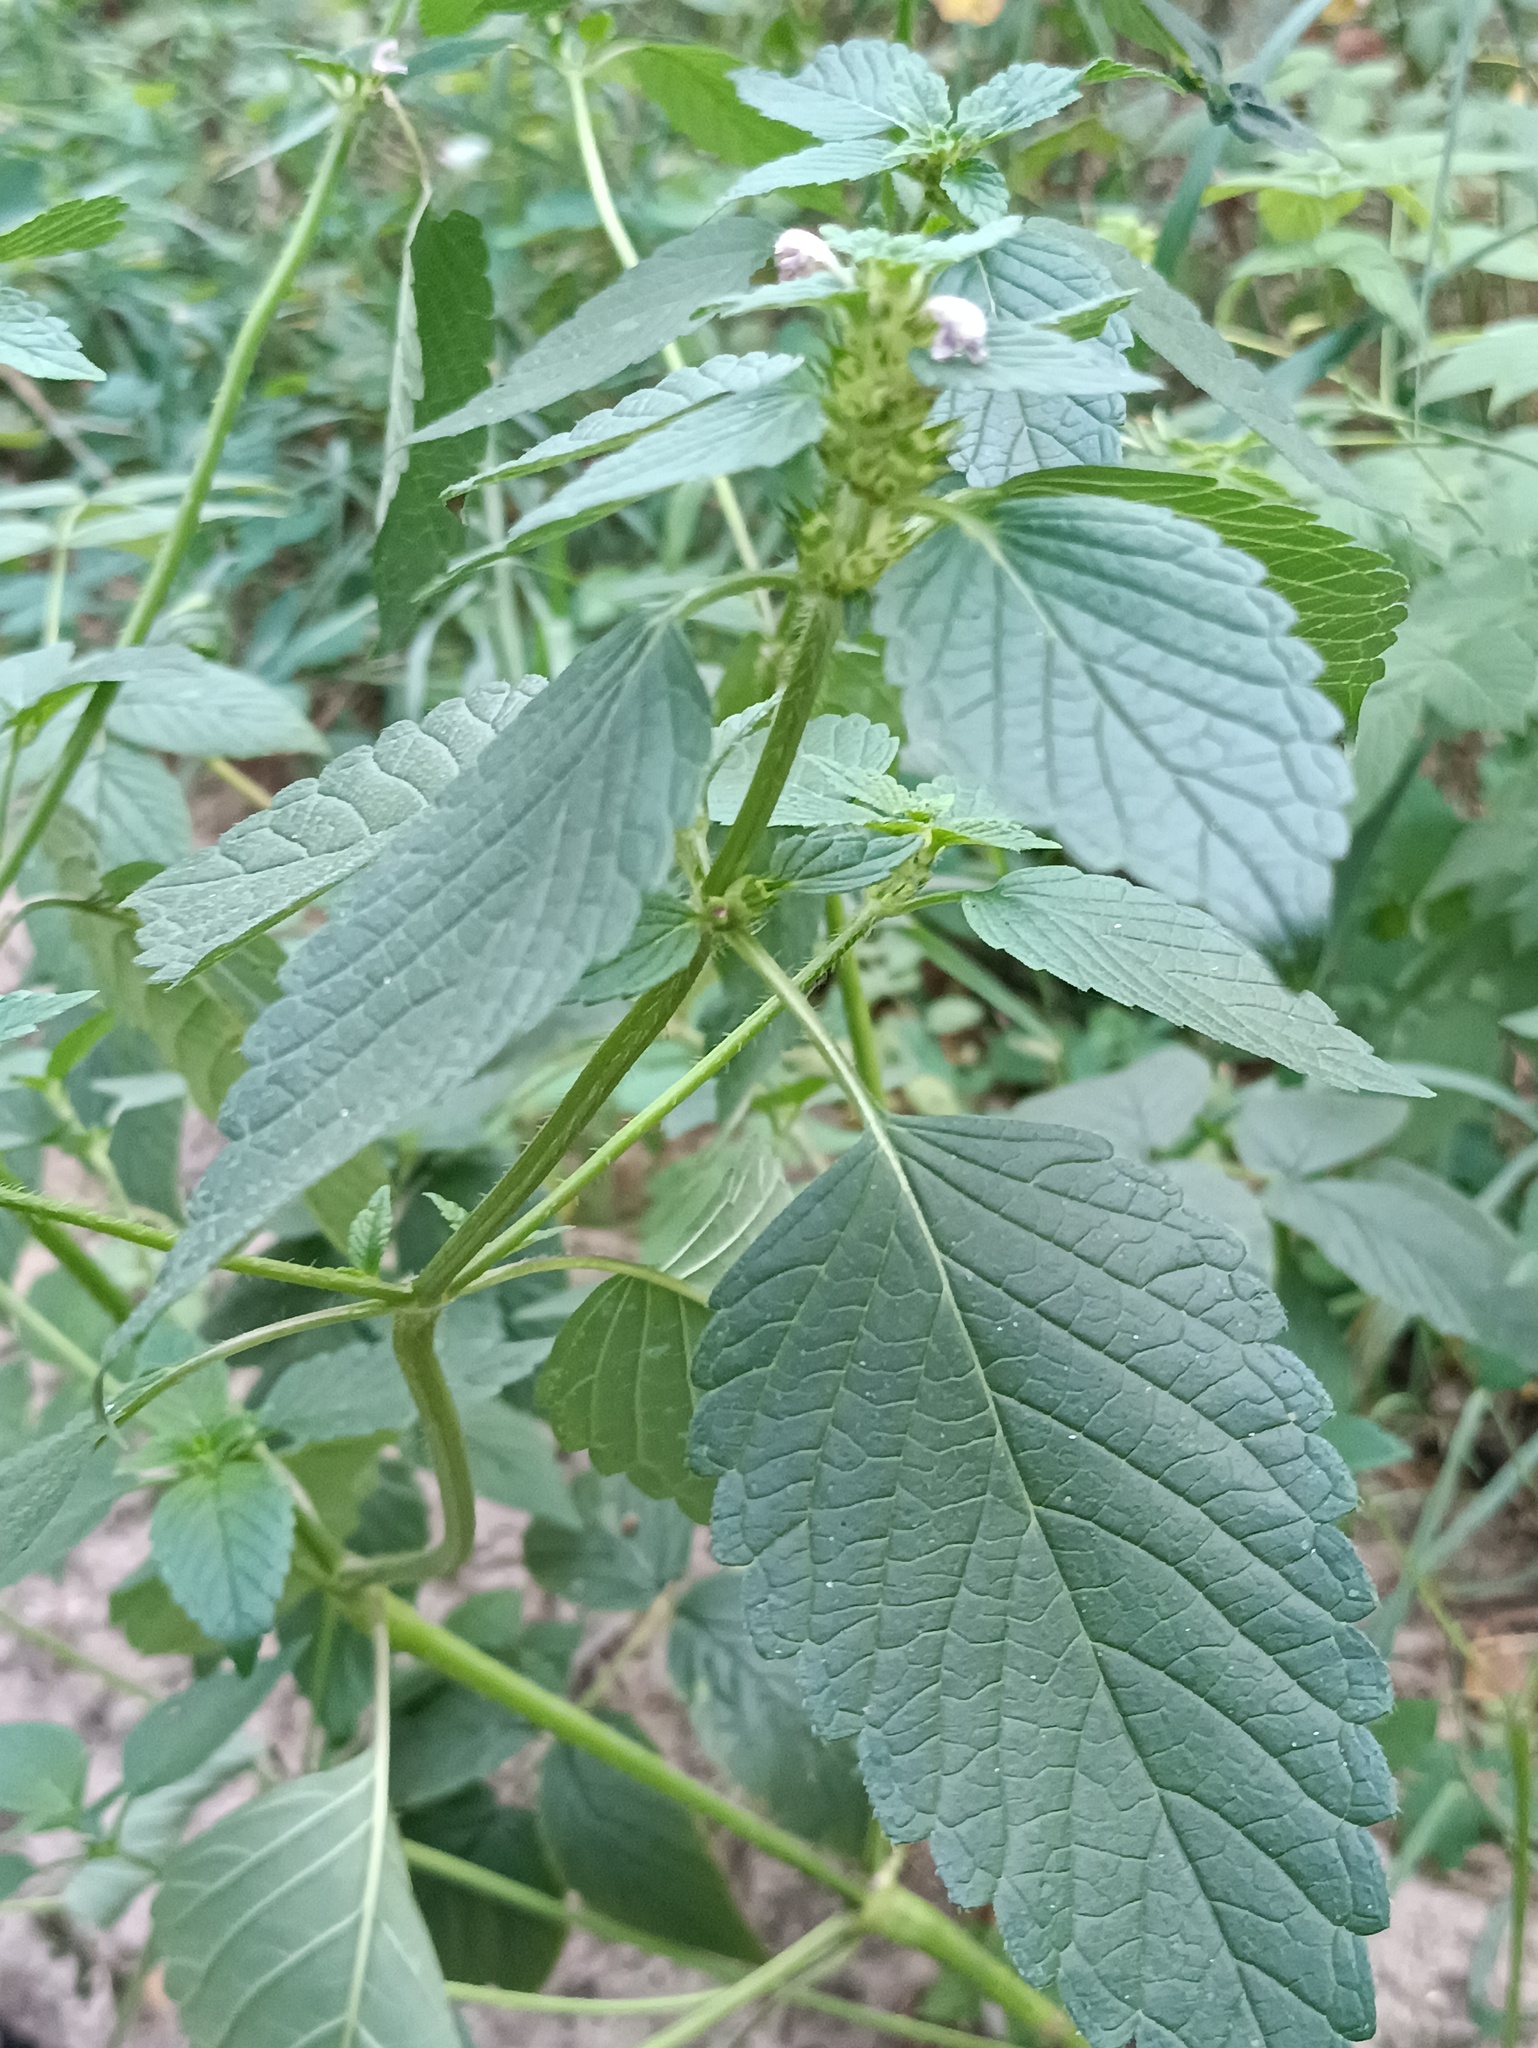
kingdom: Plantae
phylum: Tracheophyta
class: Magnoliopsida
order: Lamiales
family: Lamiaceae
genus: Galeopsis
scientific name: Galeopsis bifida
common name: Bifid hemp-nettle
